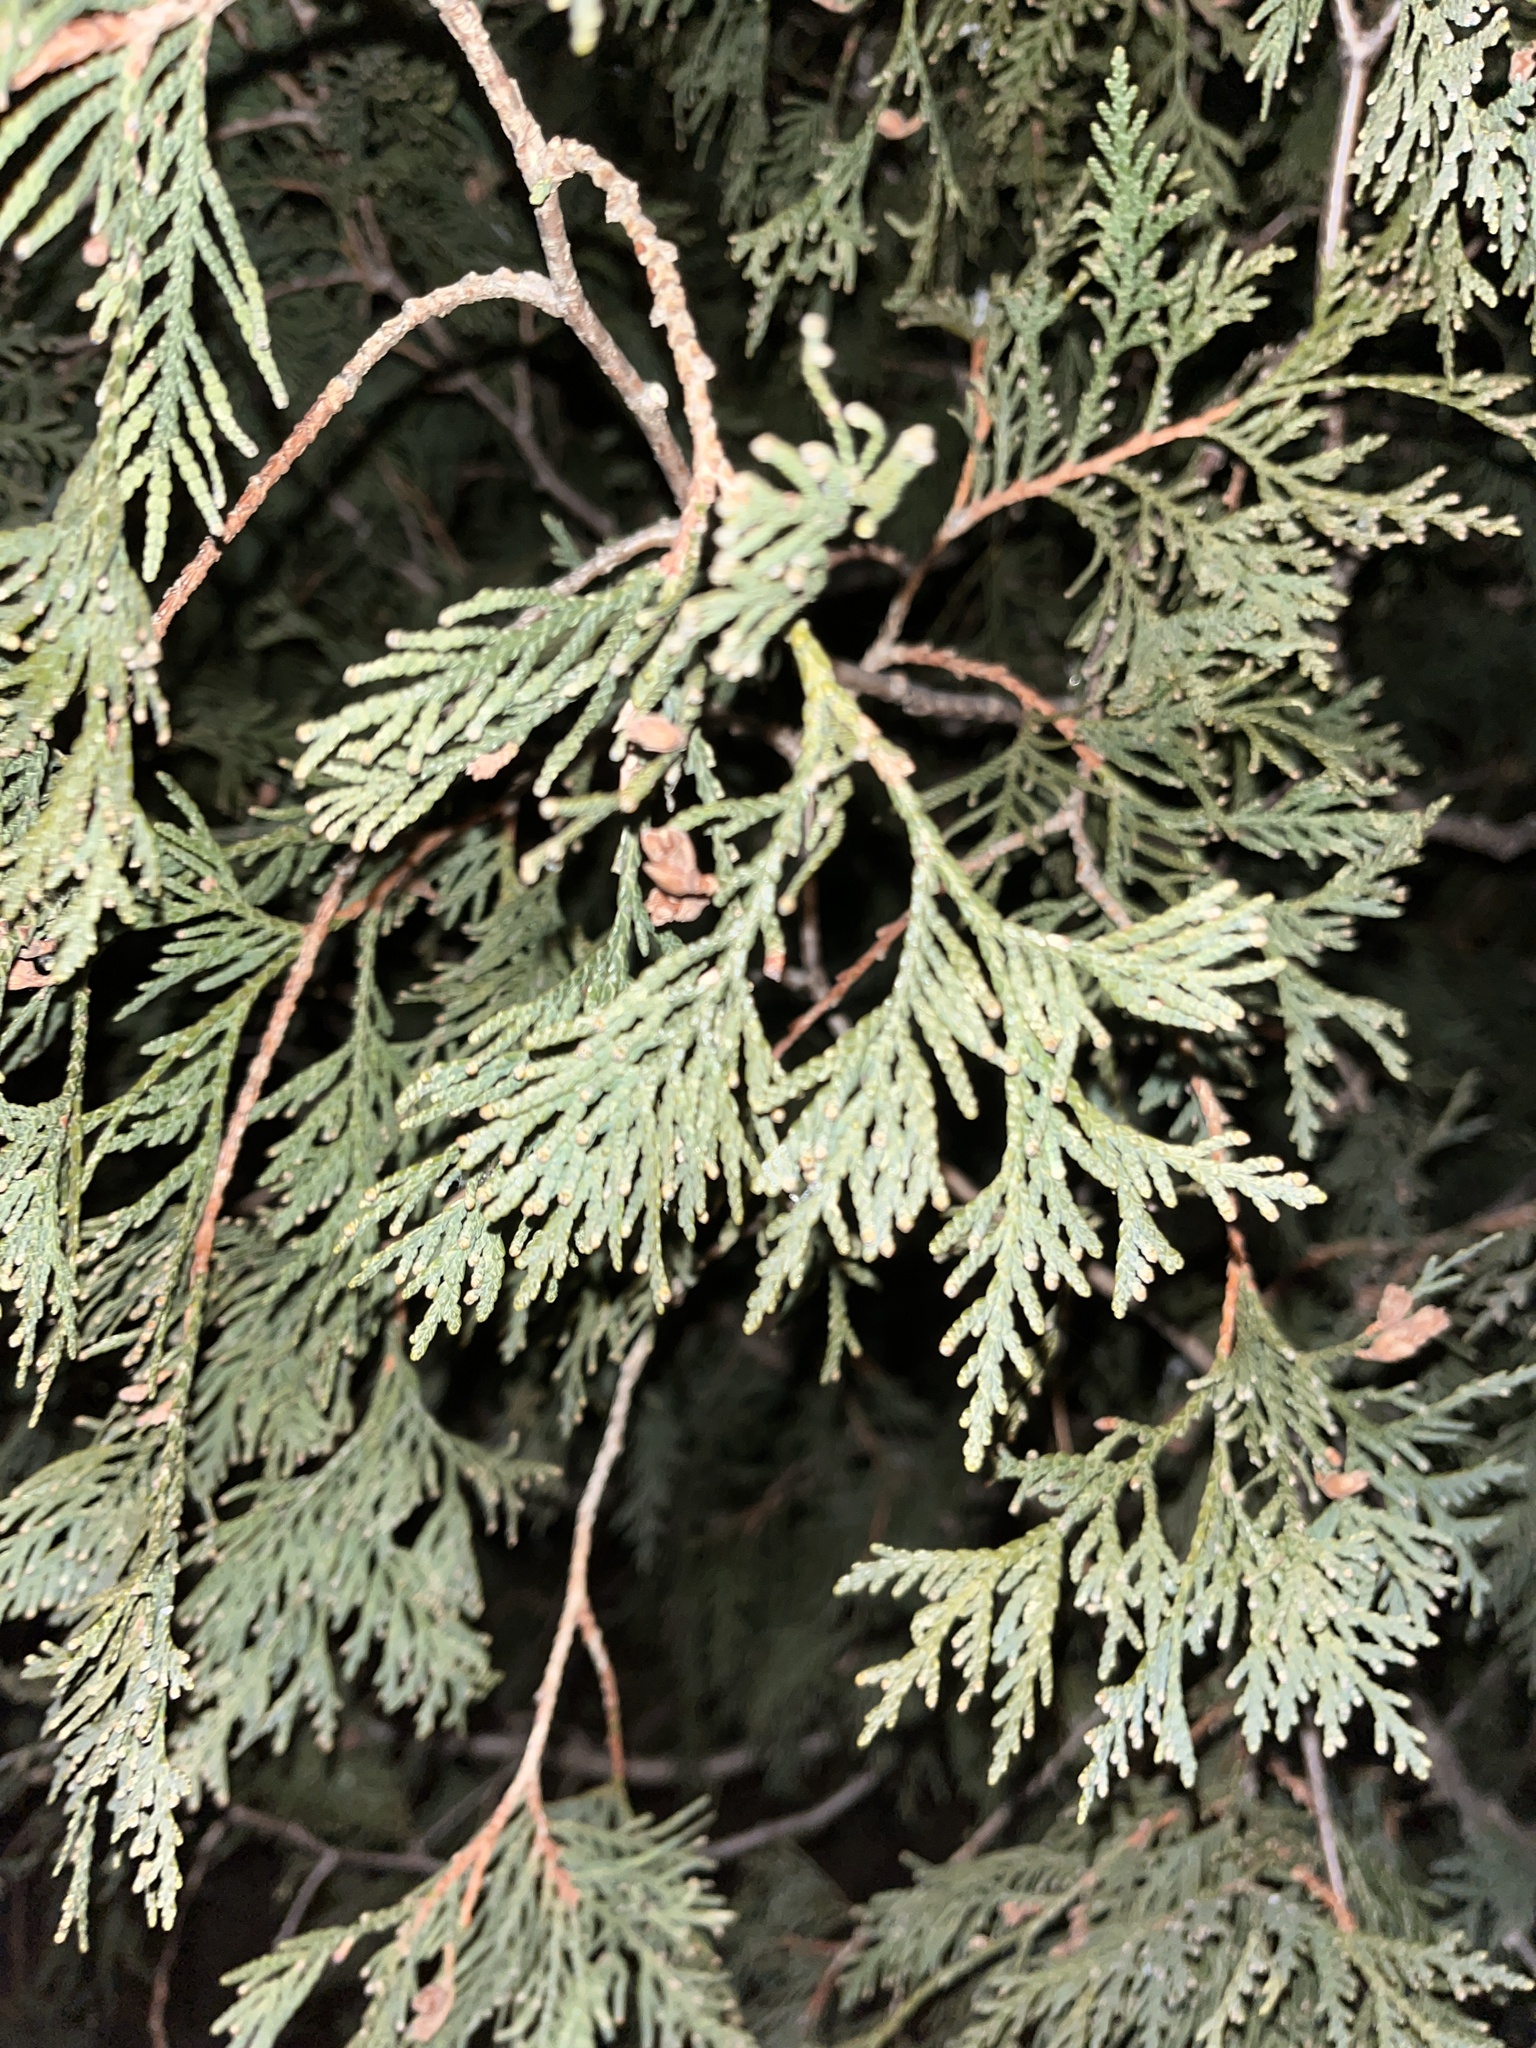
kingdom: Plantae
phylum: Tracheophyta
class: Pinopsida
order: Pinales
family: Cupressaceae
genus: Thuja
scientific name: Thuja occidentalis
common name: Northern white-cedar
